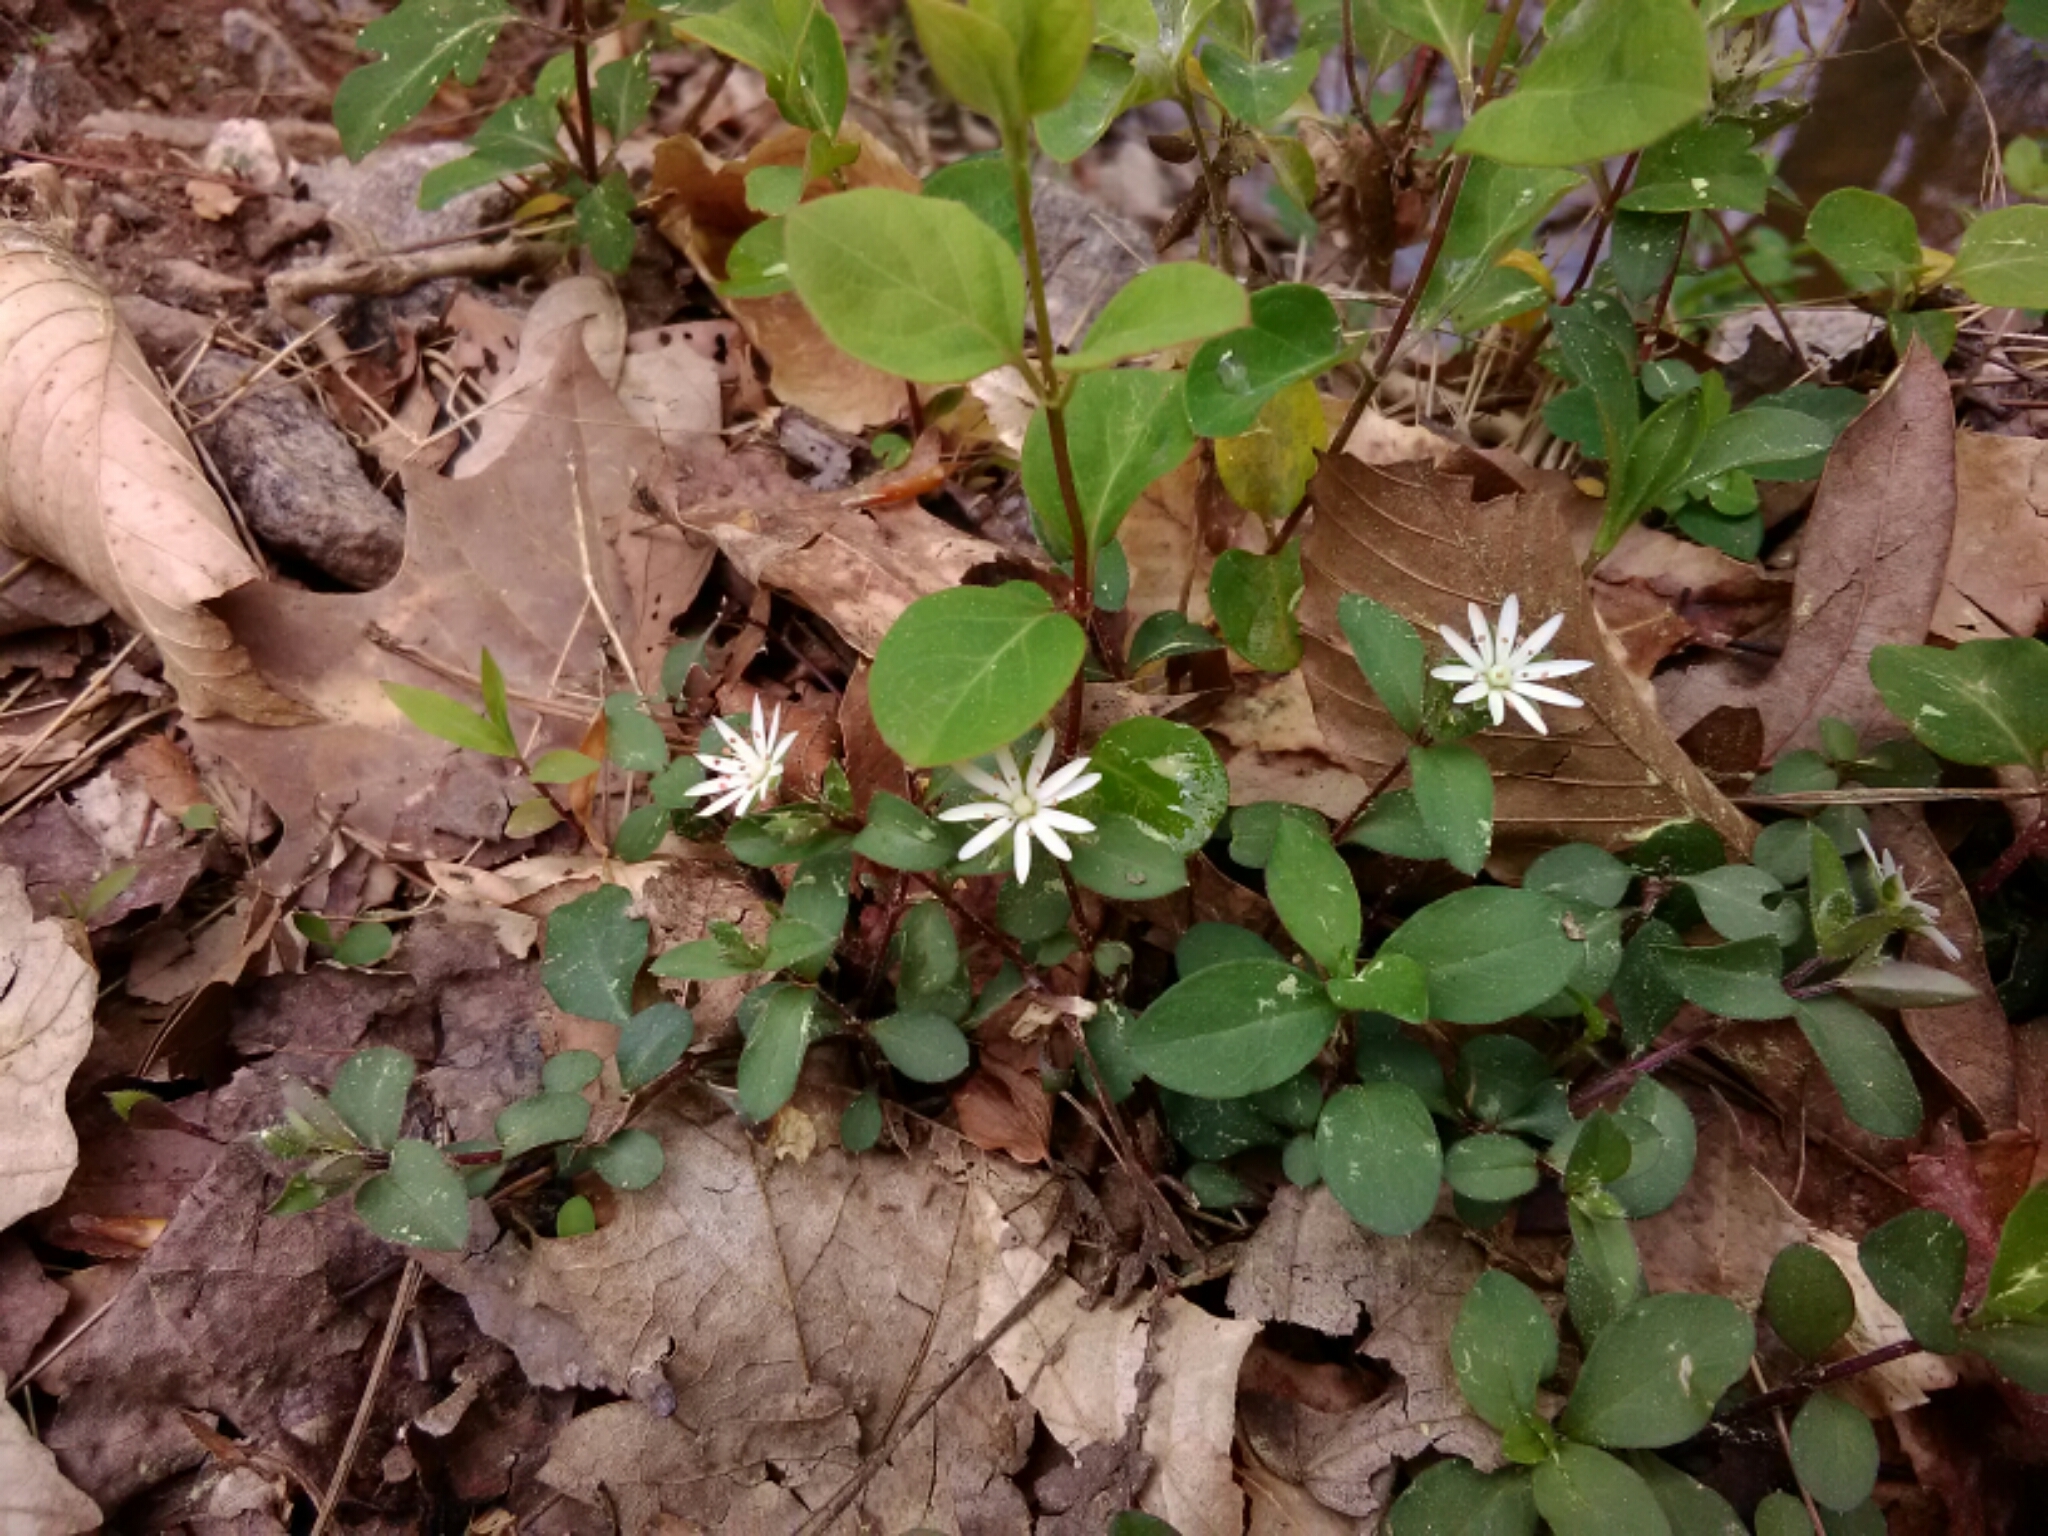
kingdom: Plantae
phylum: Tracheophyta
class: Magnoliopsida
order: Caryophyllales
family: Caryophyllaceae
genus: Stellaria
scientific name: Stellaria pubera
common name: Star chickweed
